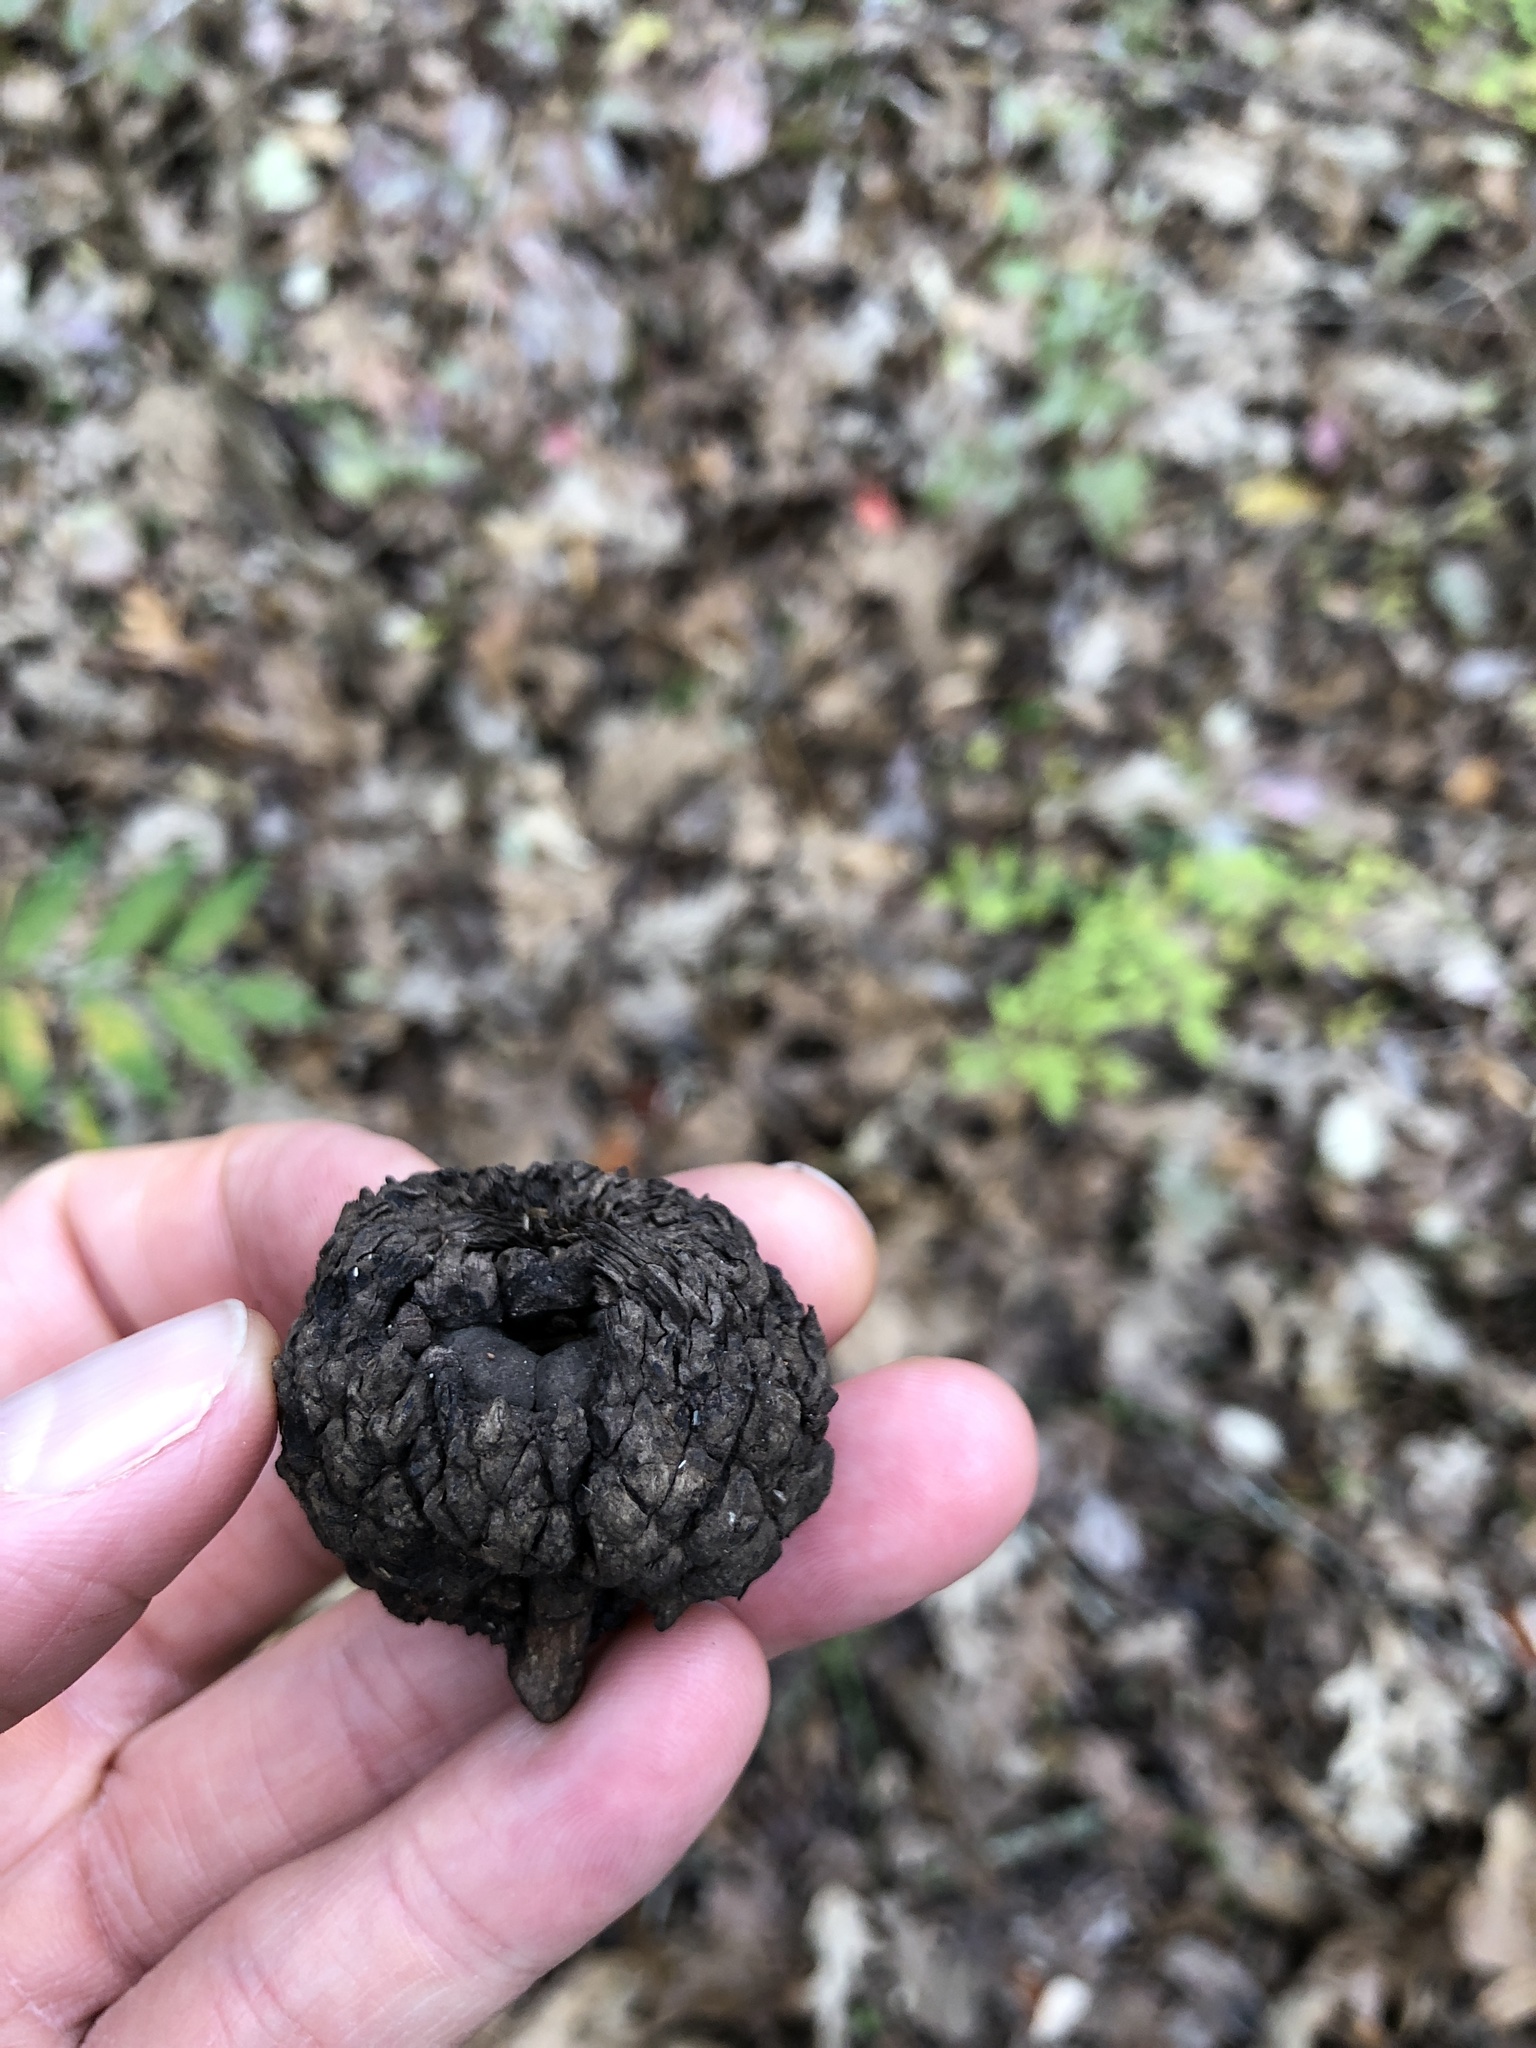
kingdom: Plantae
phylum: Tracheophyta
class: Magnoliopsida
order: Fagales
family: Fagaceae
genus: Quercus
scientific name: Quercus lyrata
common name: Overcup oak
